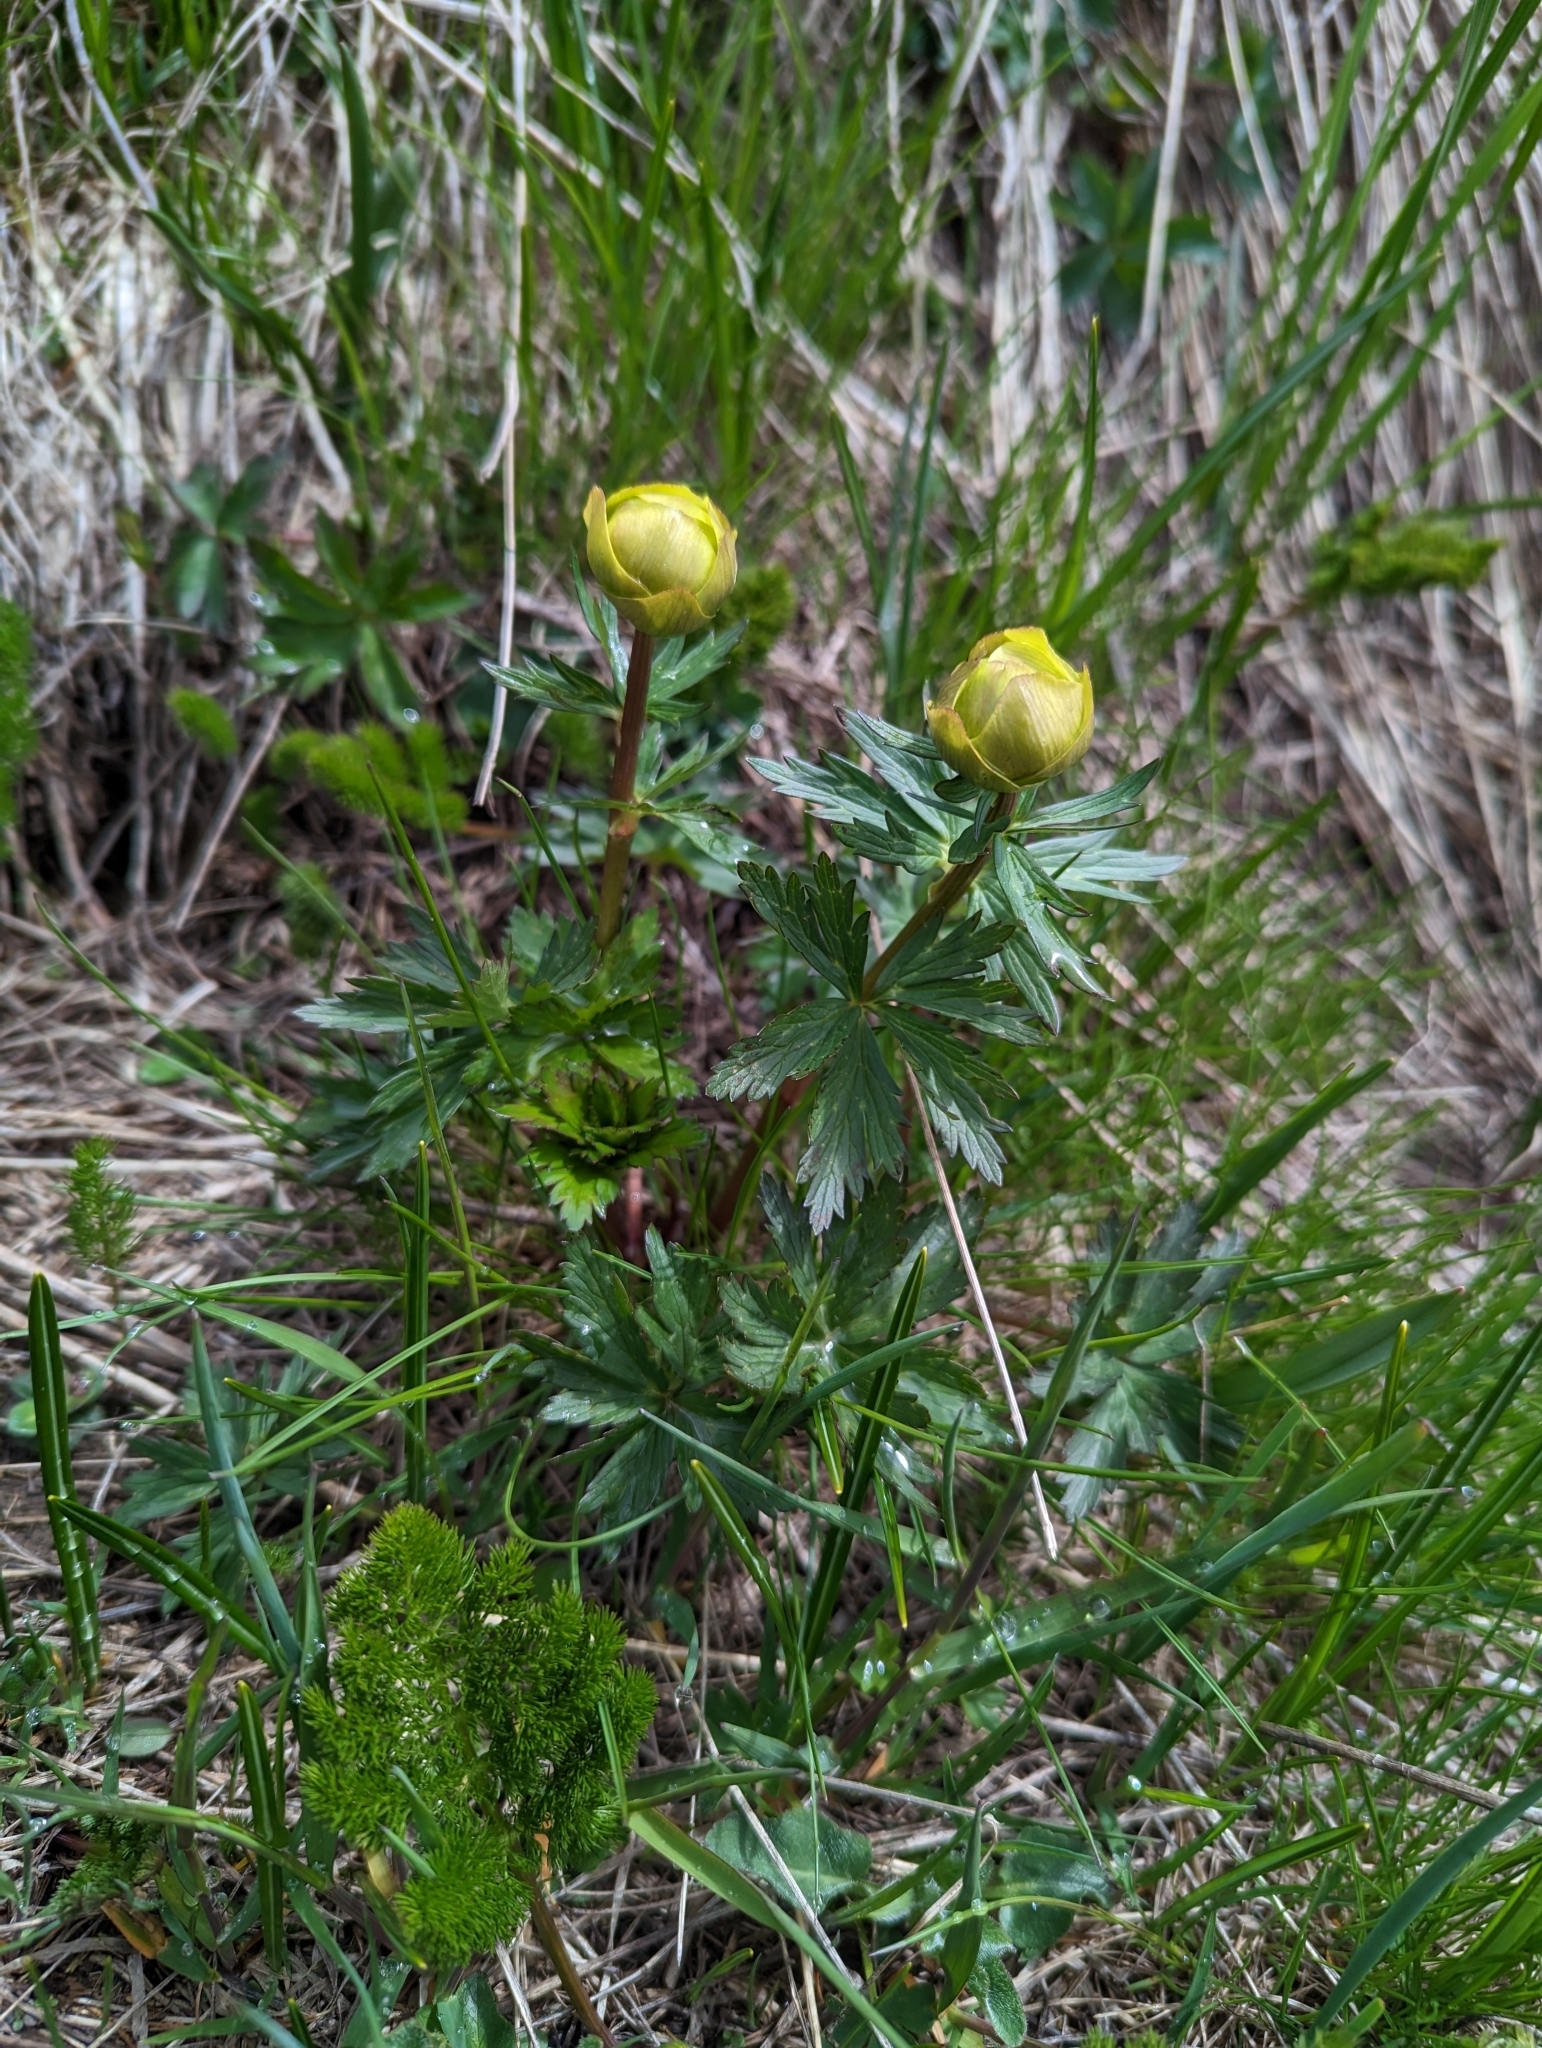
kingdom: Plantae
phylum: Tracheophyta
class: Magnoliopsida
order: Ranunculales
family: Ranunculaceae
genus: Trollius
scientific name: Trollius europaeus
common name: European globeflower
